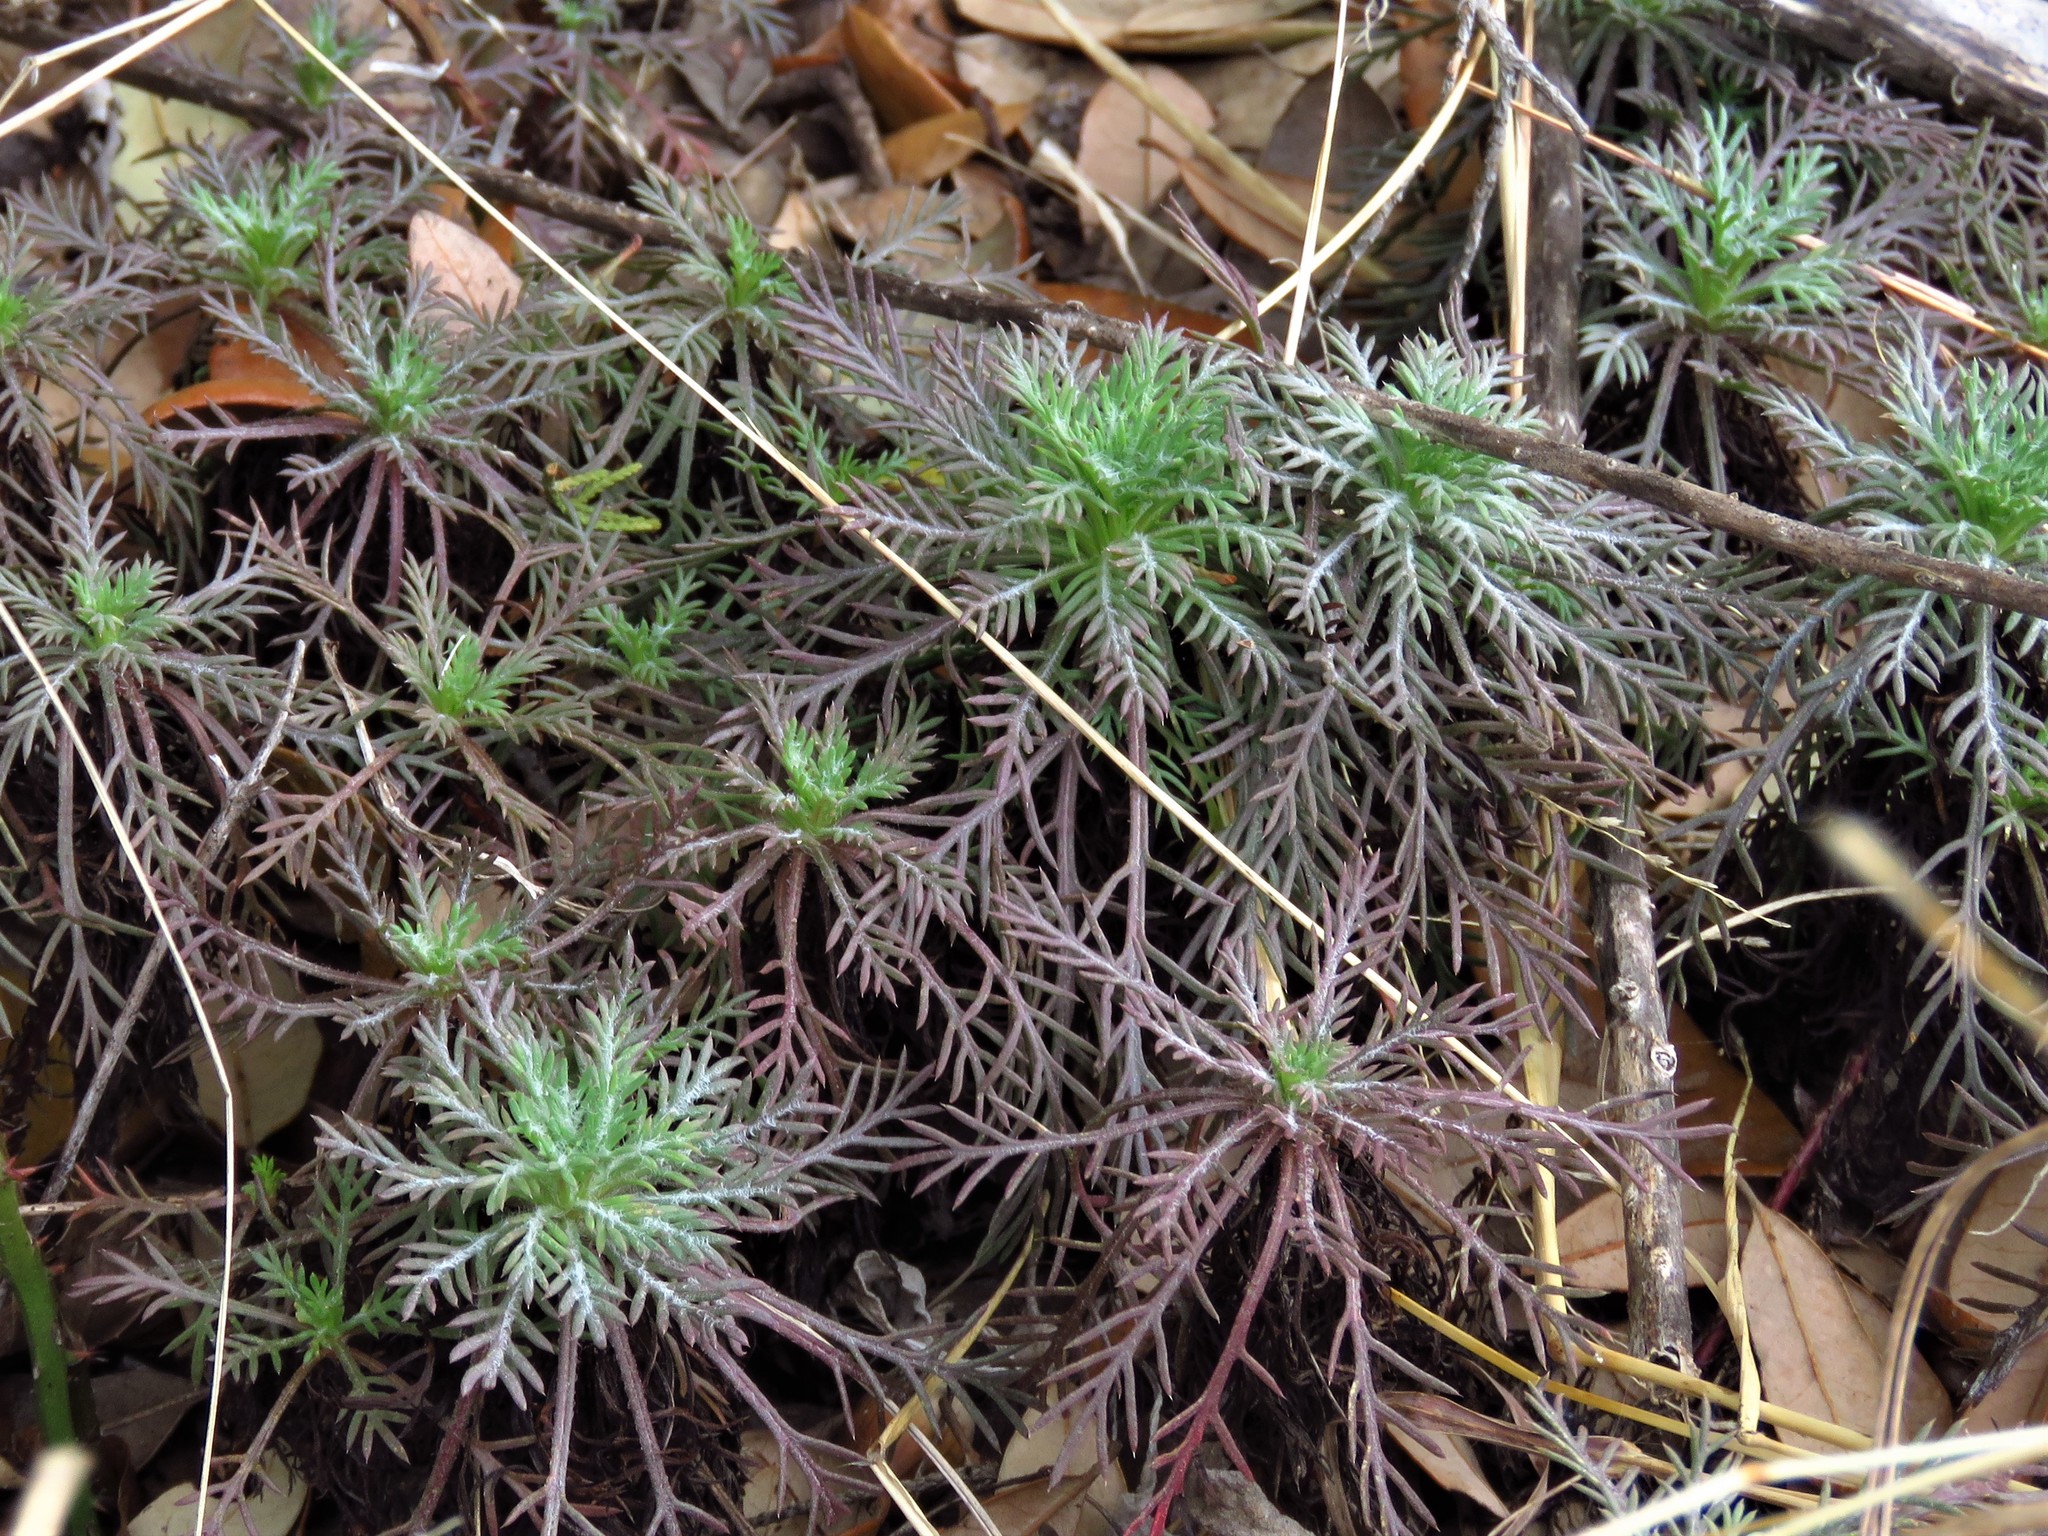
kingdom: Plantae
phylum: Tracheophyta
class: Magnoliopsida
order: Ericales
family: Polemoniaceae
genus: Ipomopsis
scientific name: Ipomopsis rubra
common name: Skyrocket
